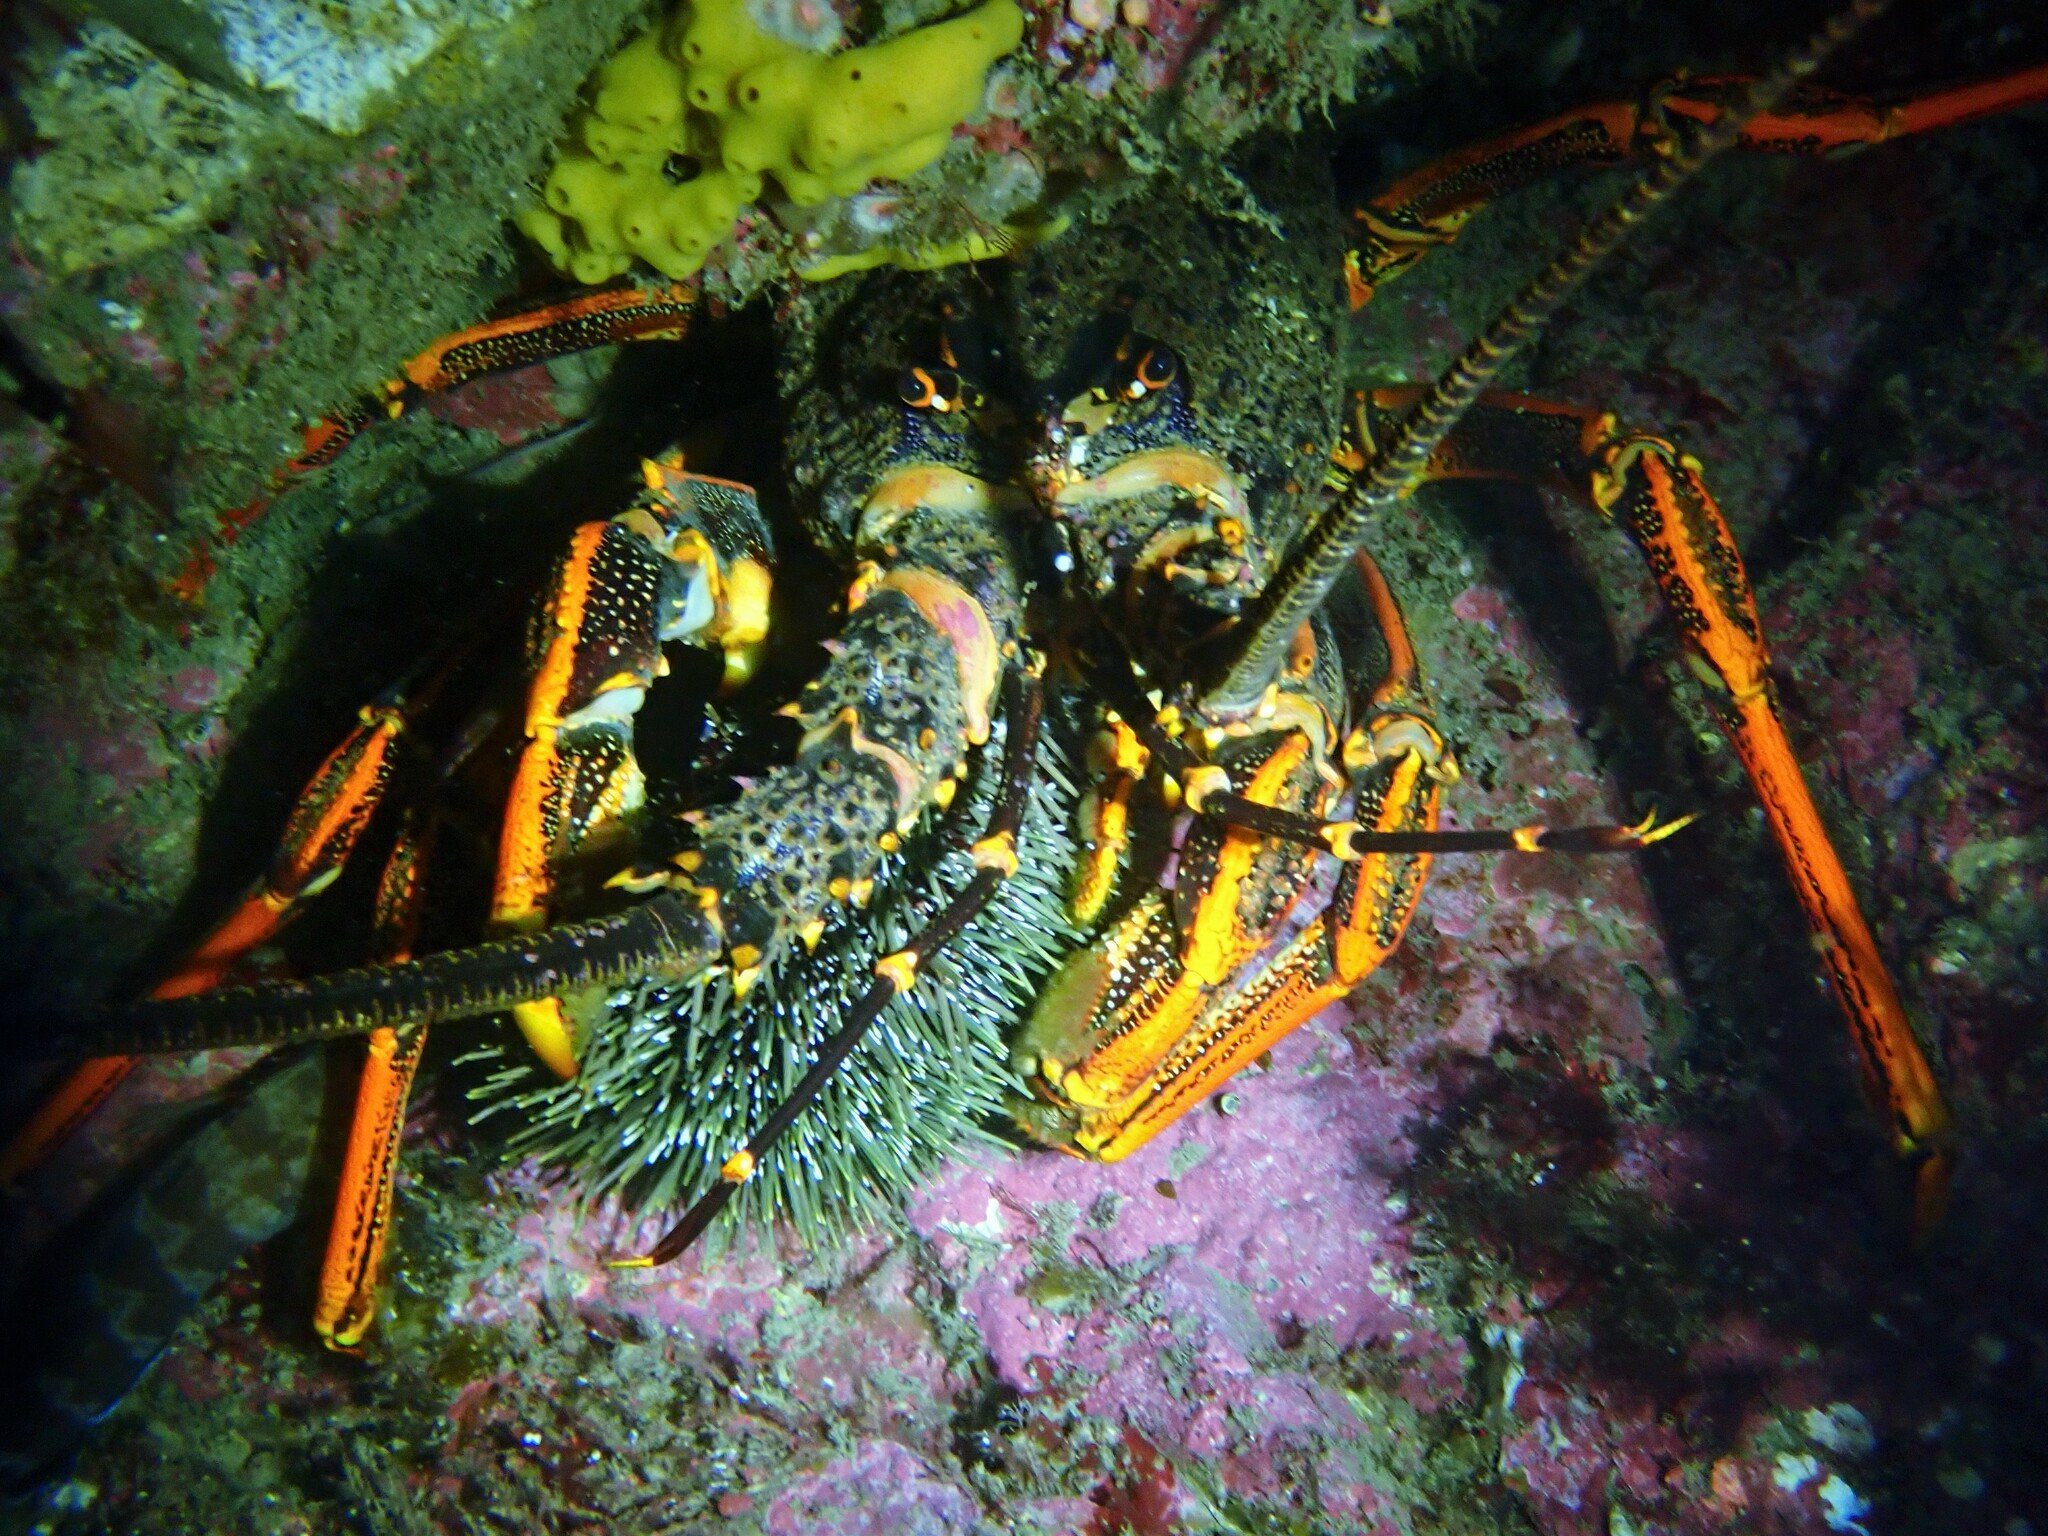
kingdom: Animalia
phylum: Arthropoda
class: Malacostraca
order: Decapoda
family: Palinuridae
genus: Jasus
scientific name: Jasus edwardsii
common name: Red rock lobster
